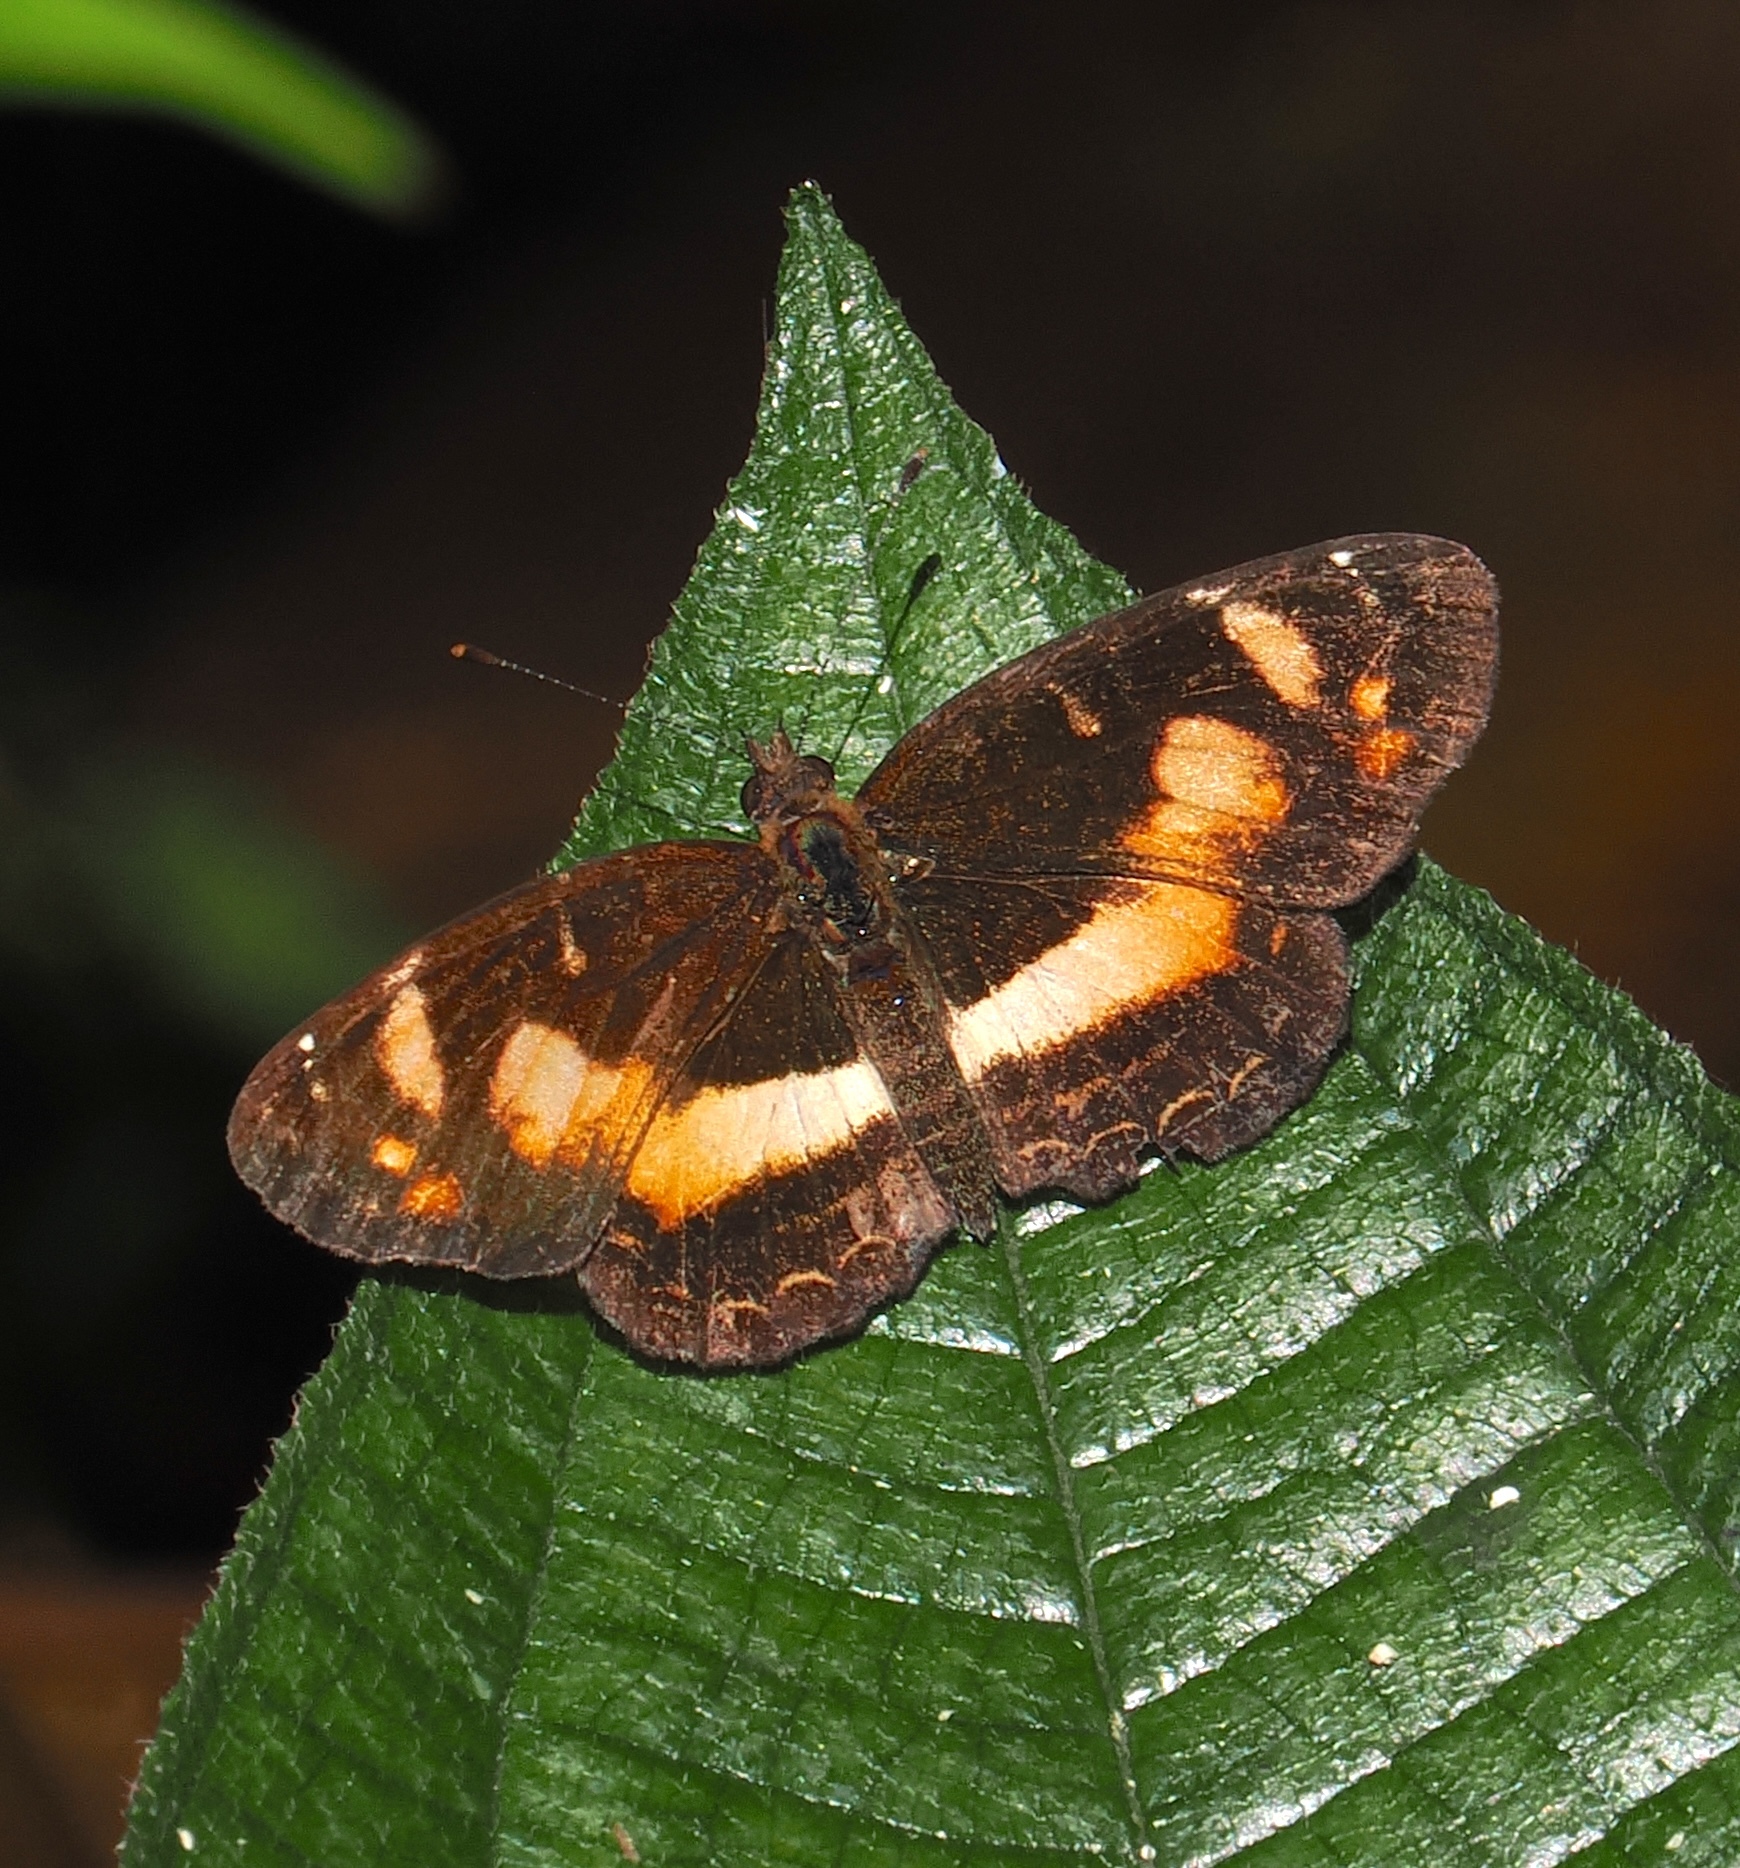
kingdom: Animalia
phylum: Arthropoda
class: Insecta
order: Lepidoptera
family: Nymphalidae
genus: Telenassa
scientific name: Telenassa teletusa
